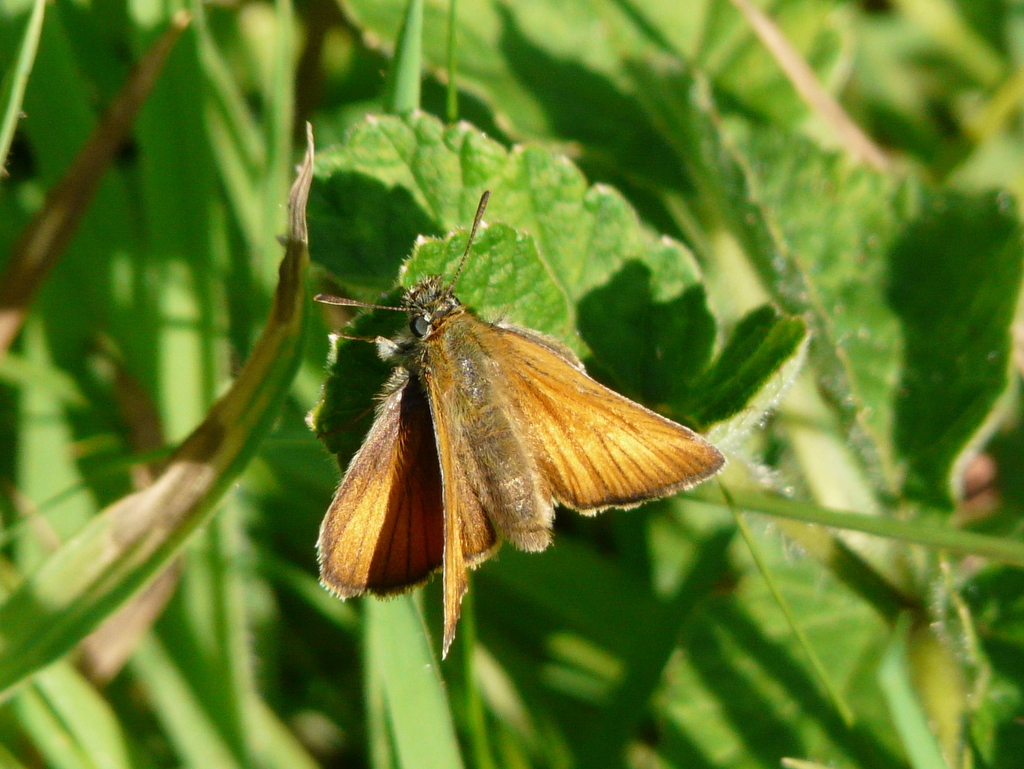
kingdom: Animalia
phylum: Arthropoda
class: Insecta
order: Lepidoptera
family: Hesperiidae
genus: Thymelicus
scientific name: Thymelicus
